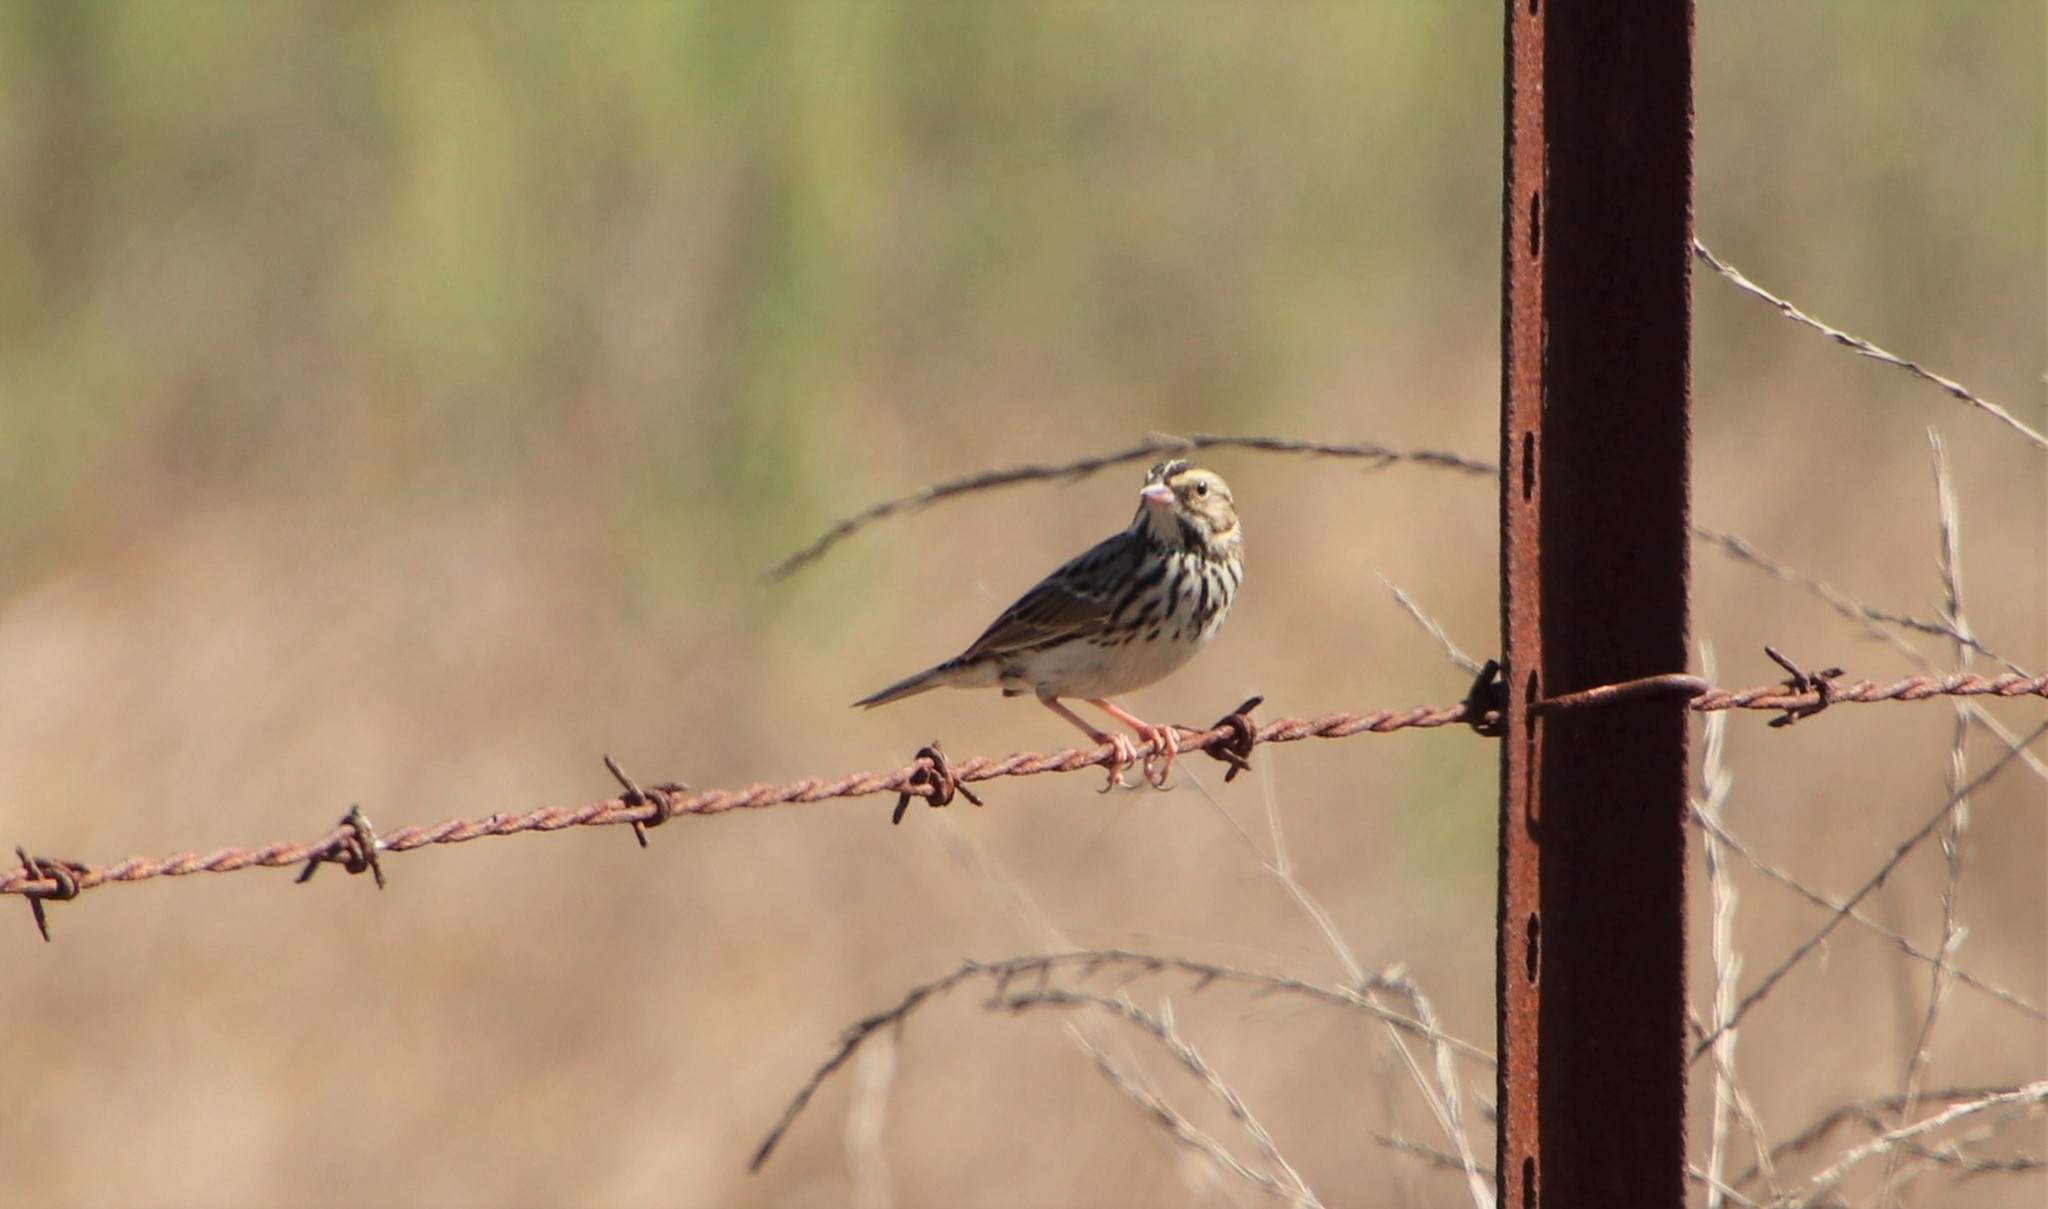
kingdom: Animalia
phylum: Chordata
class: Aves
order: Passeriformes
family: Passerellidae
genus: Passerculus
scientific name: Passerculus sandwichensis
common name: Savannah sparrow
